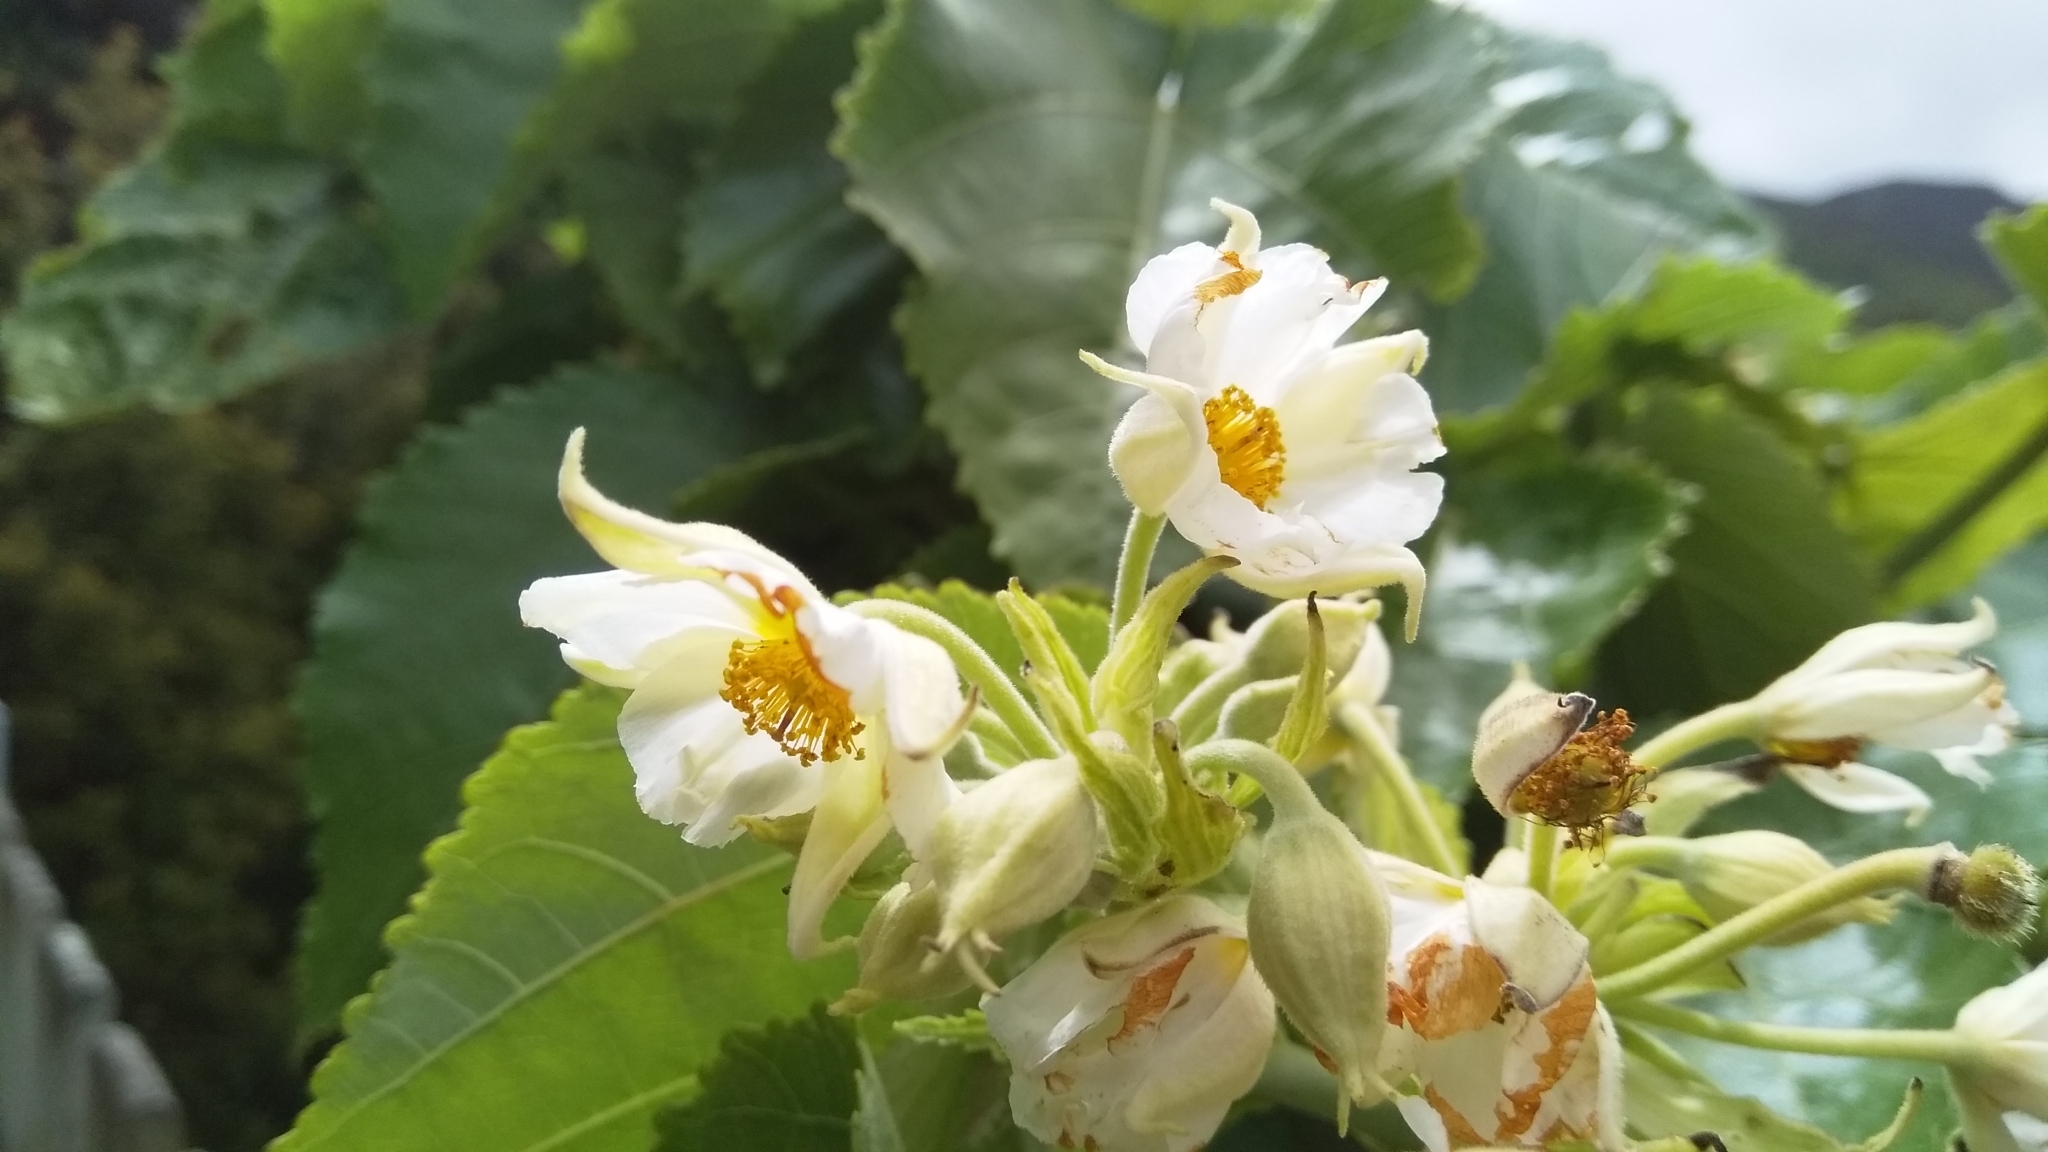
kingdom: Plantae
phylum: Tracheophyta
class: Magnoliopsida
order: Malvales
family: Malvaceae
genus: Entelea
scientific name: Entelea arborescens
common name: New zealand-mulberry
